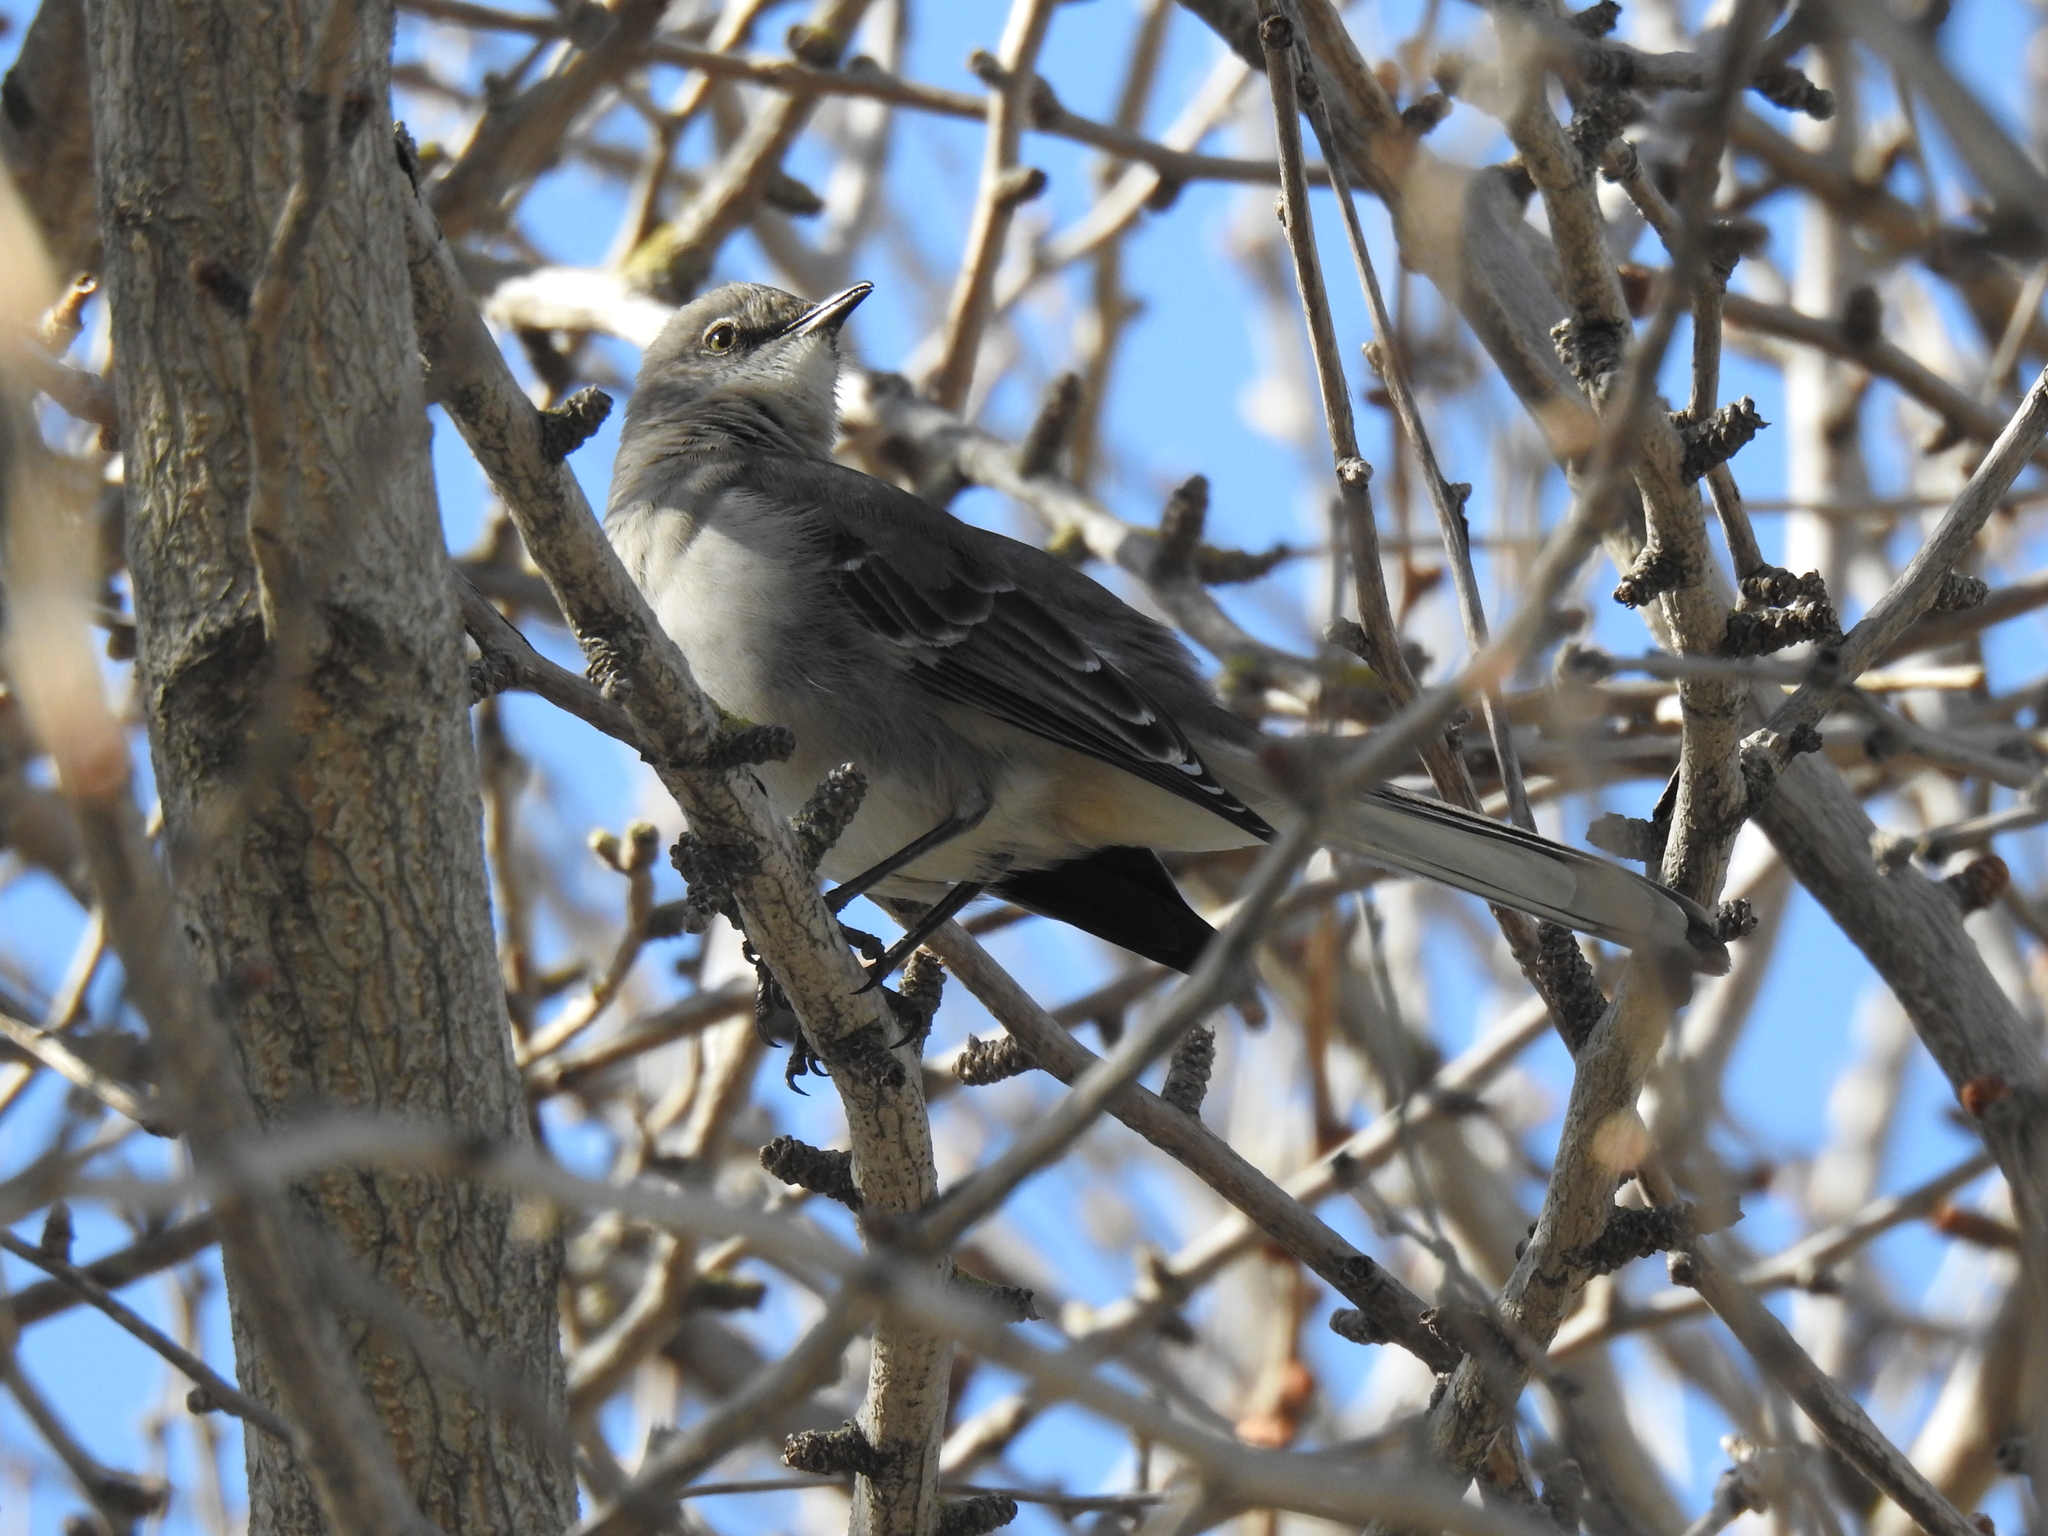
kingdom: Animalia
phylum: Chordata
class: Aves
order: Passeriformes
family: Mimidae
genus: Mimus
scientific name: Mimus polyglottos
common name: Northern mockingbird
